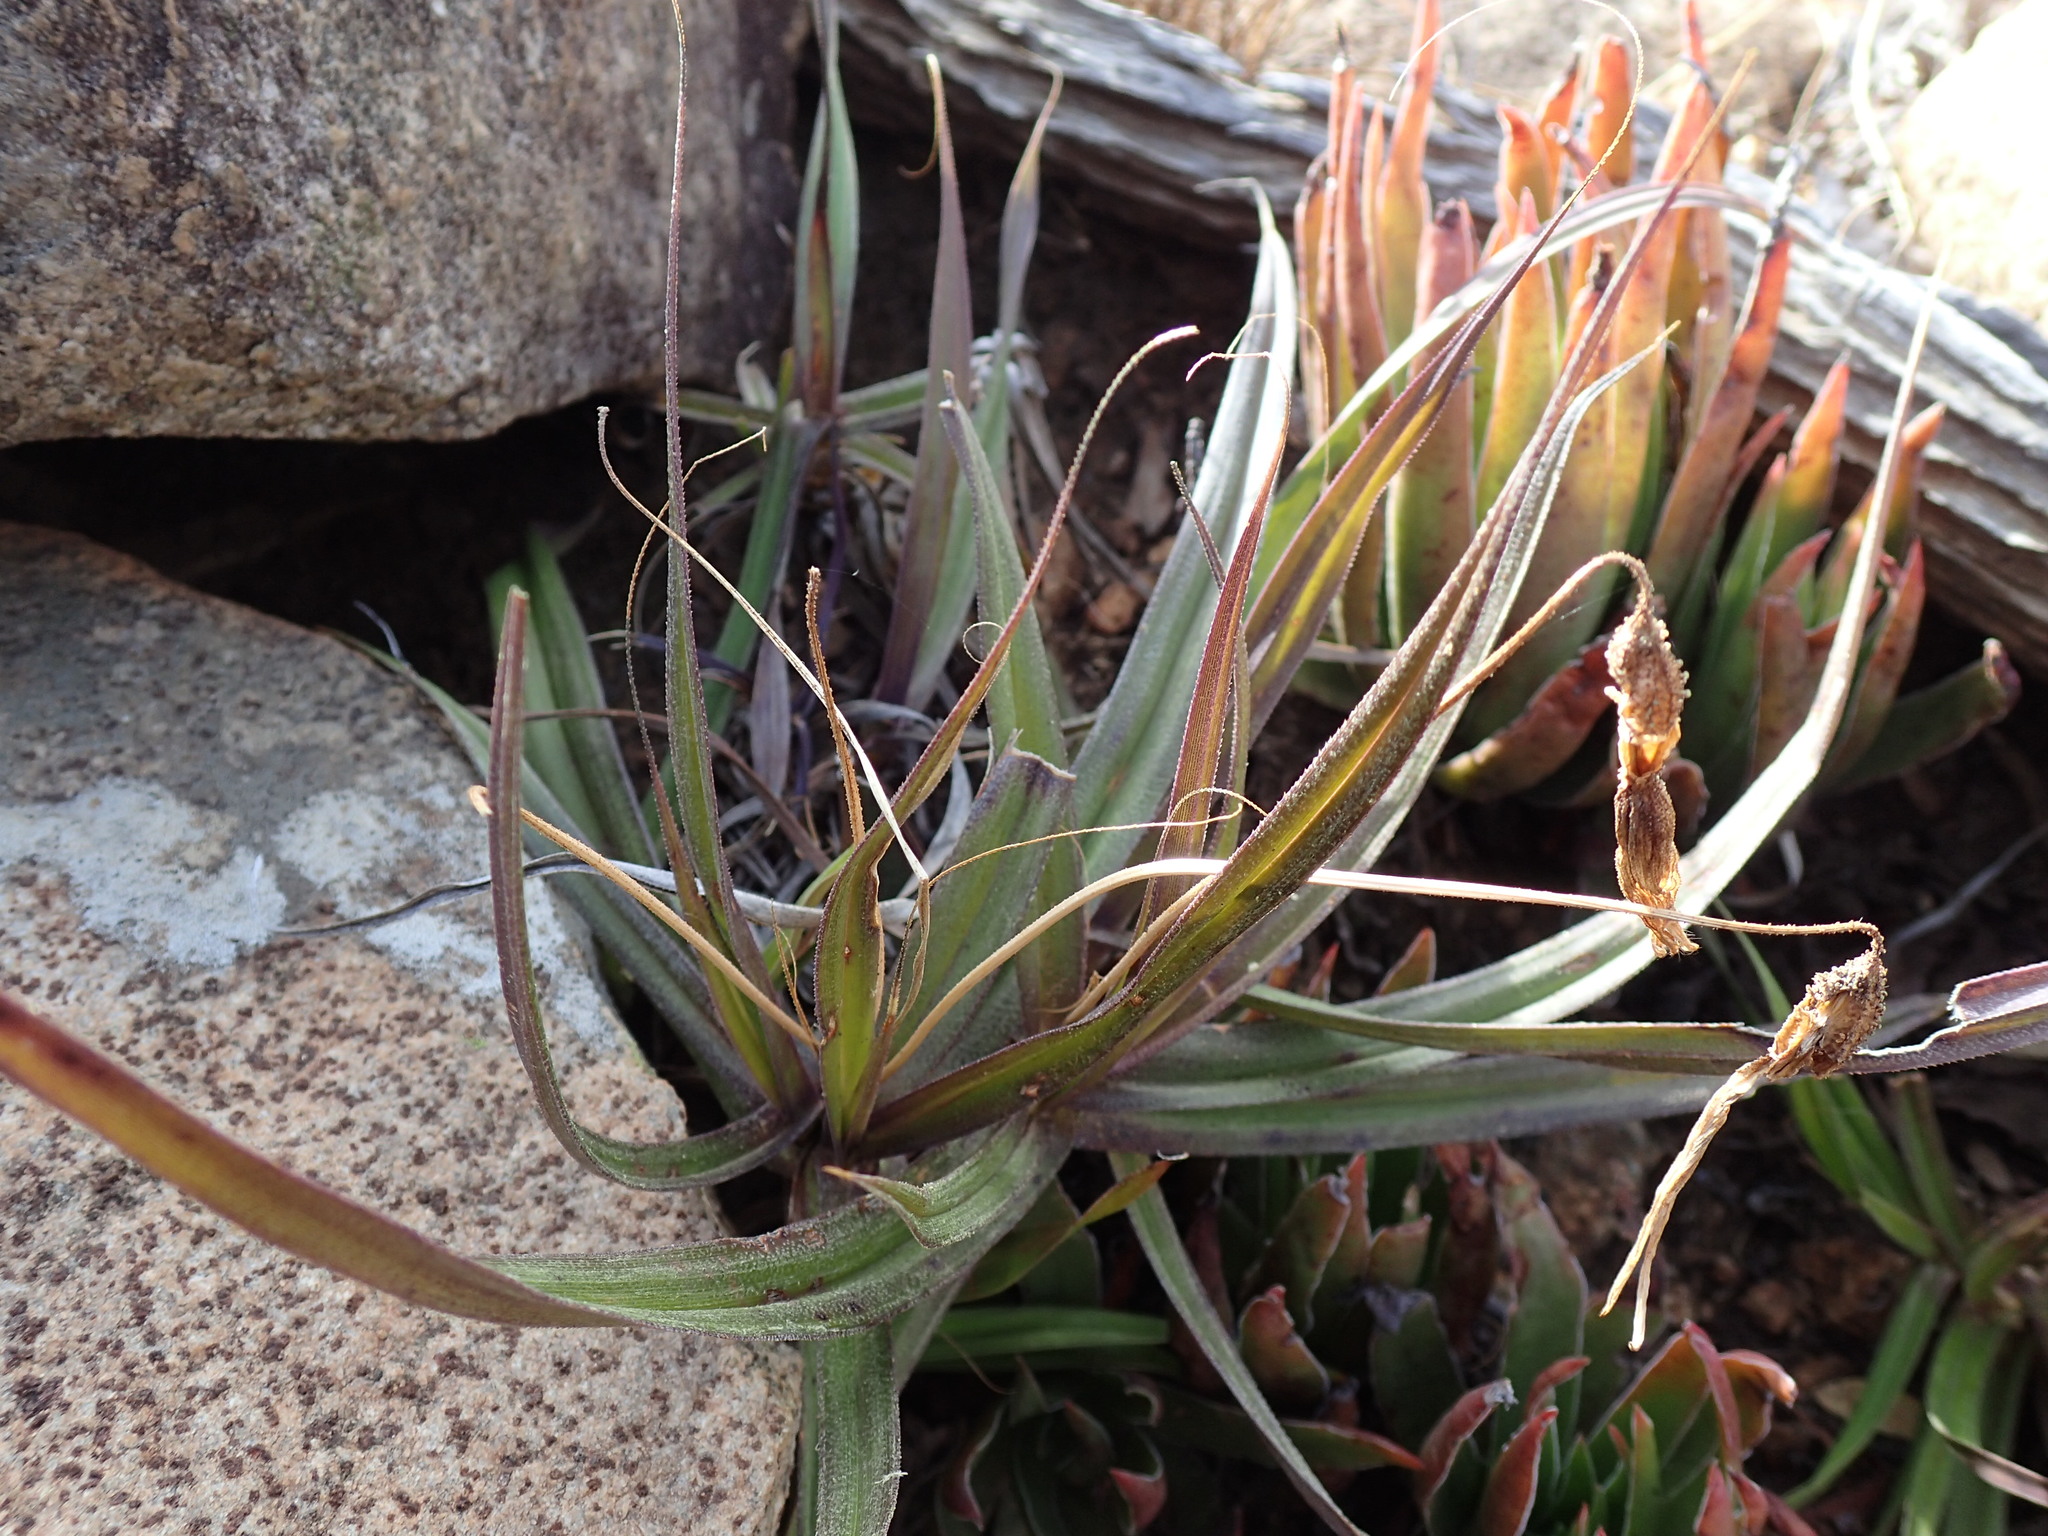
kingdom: Plantae
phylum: Tracheophyta
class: Liliopsida
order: Pandanales
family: Velloziaceae
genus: Xerophyta
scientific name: Xerophyta viscosa
